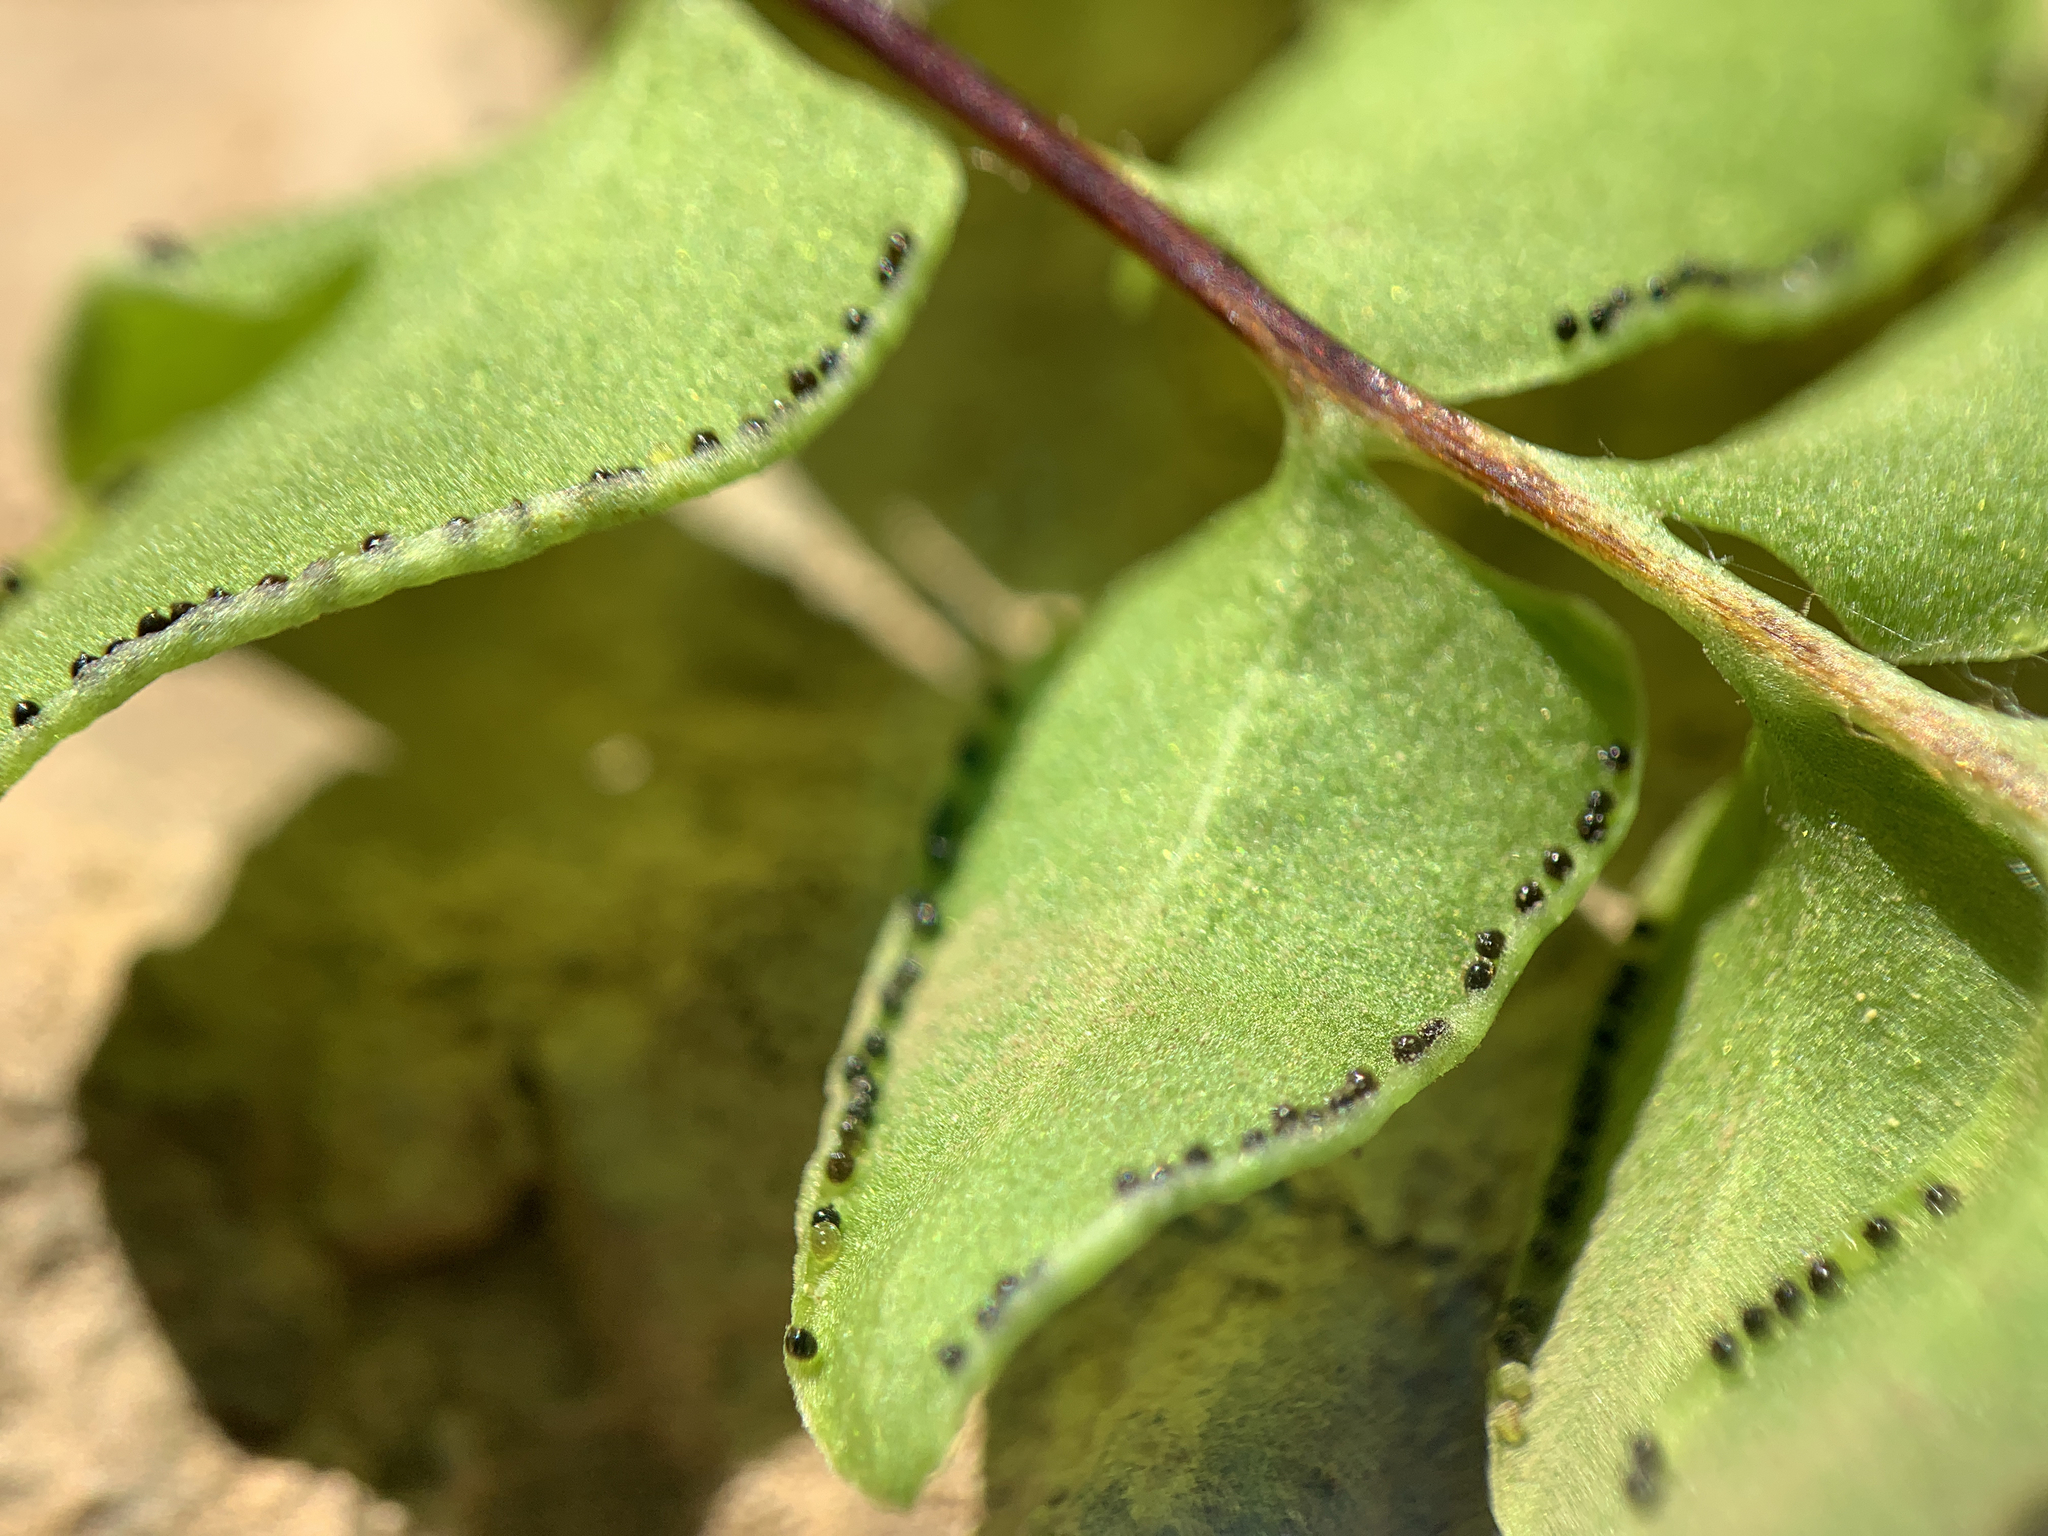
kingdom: Plantae
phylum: Tracheophyta
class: Polypodiopsida
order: Polypodiales
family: Pteridaceae
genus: Pellaea
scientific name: Pellaea breweri
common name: Brewer's cliffbrake
